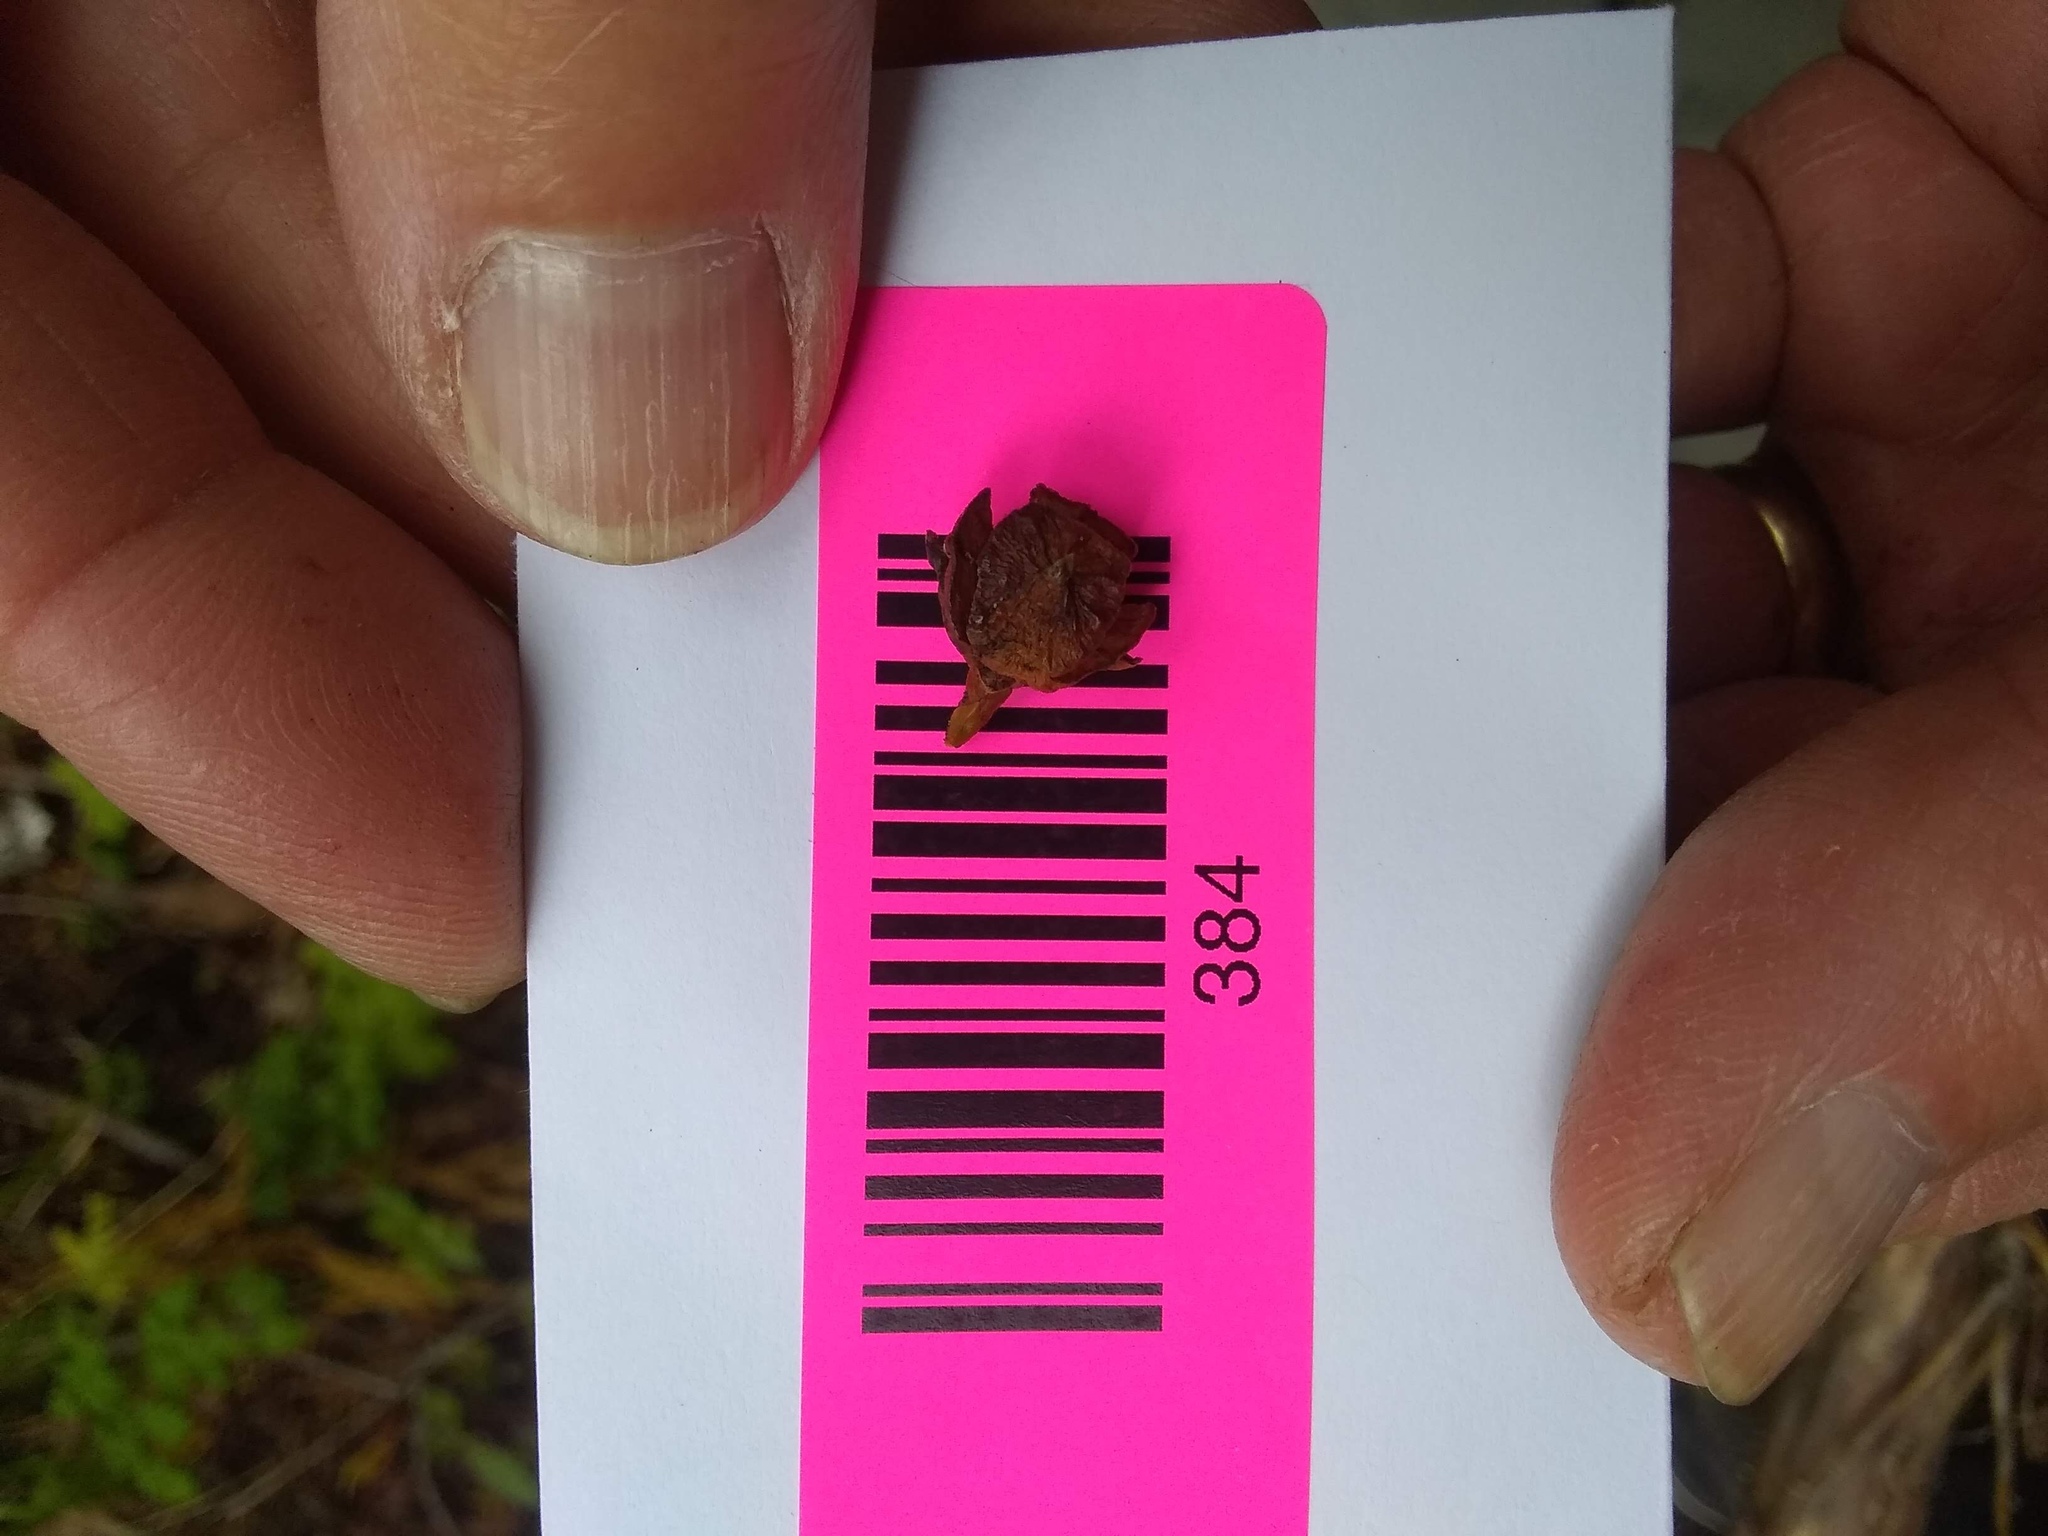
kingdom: Plantae
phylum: Tracheophyta
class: Pinopsida
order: Pinales
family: Cupressaceae
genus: Xanthocyparis
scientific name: Xanthocyparis nootkatensis
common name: Nootka cypress
